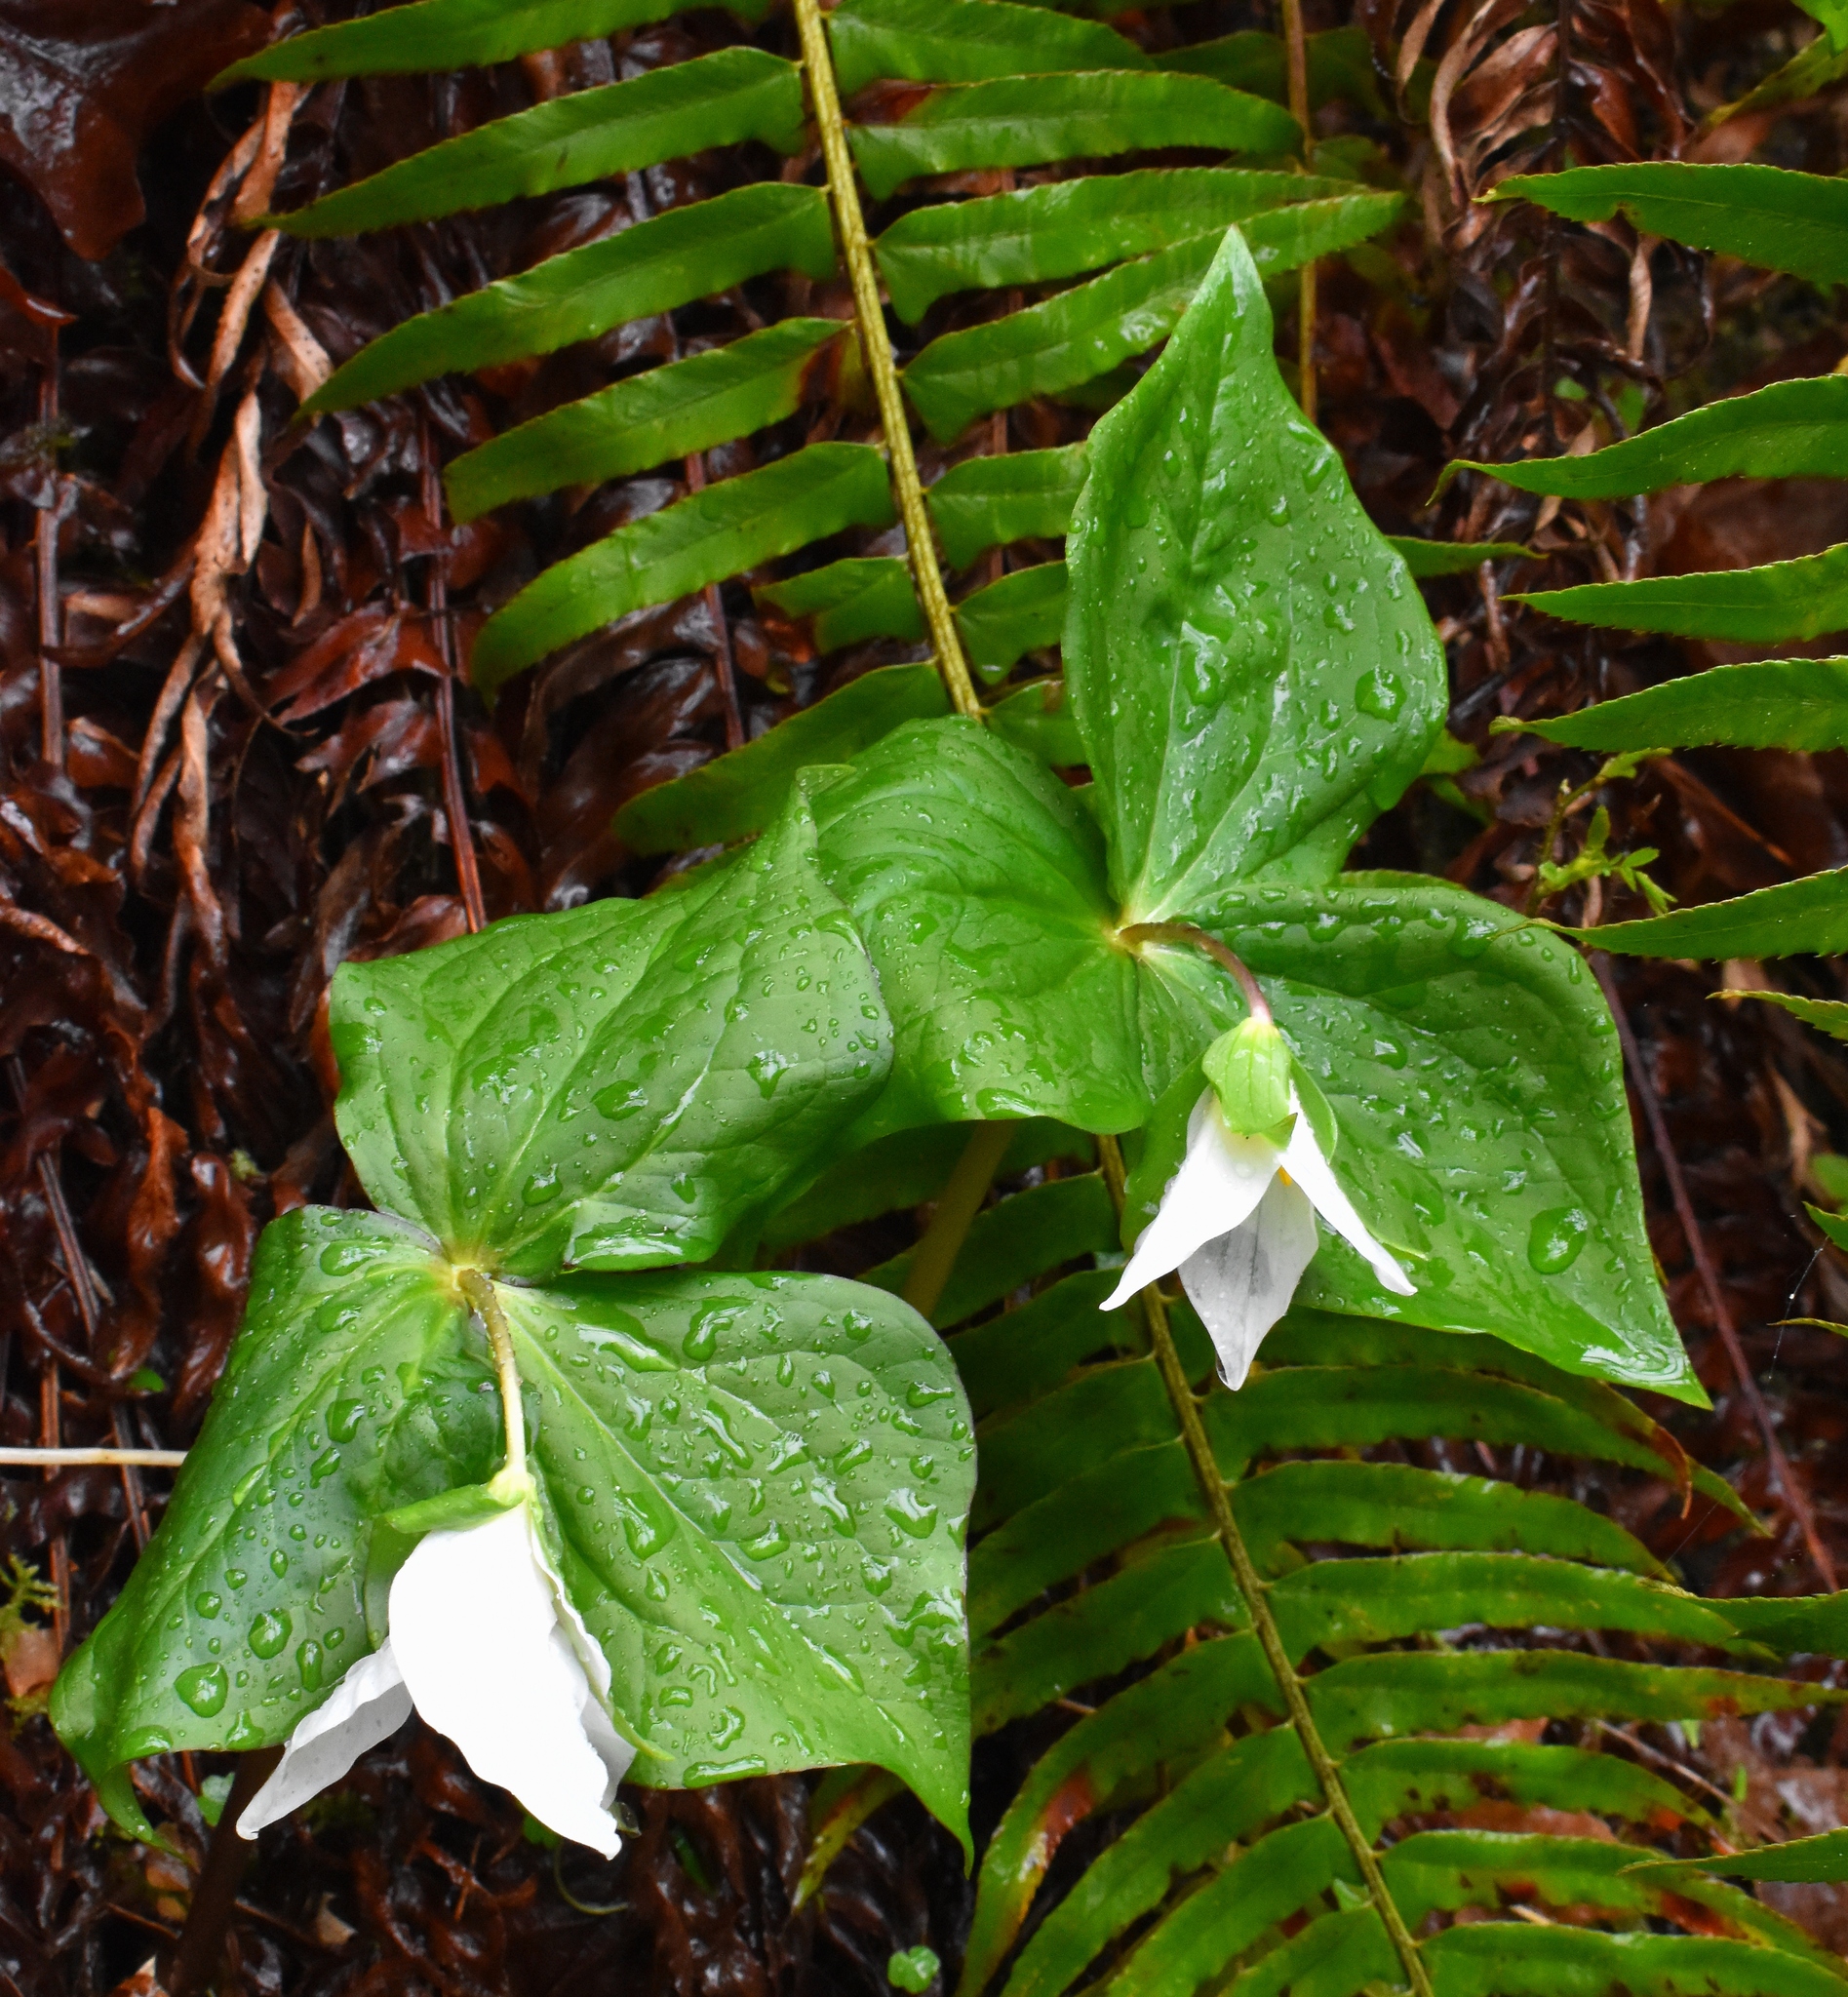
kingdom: Plantae
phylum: Tracheophyta
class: Liliopsida
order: Liliales
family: Melanthiaceae
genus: Trillium
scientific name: Trillium ovatum
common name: Pacific trillium
